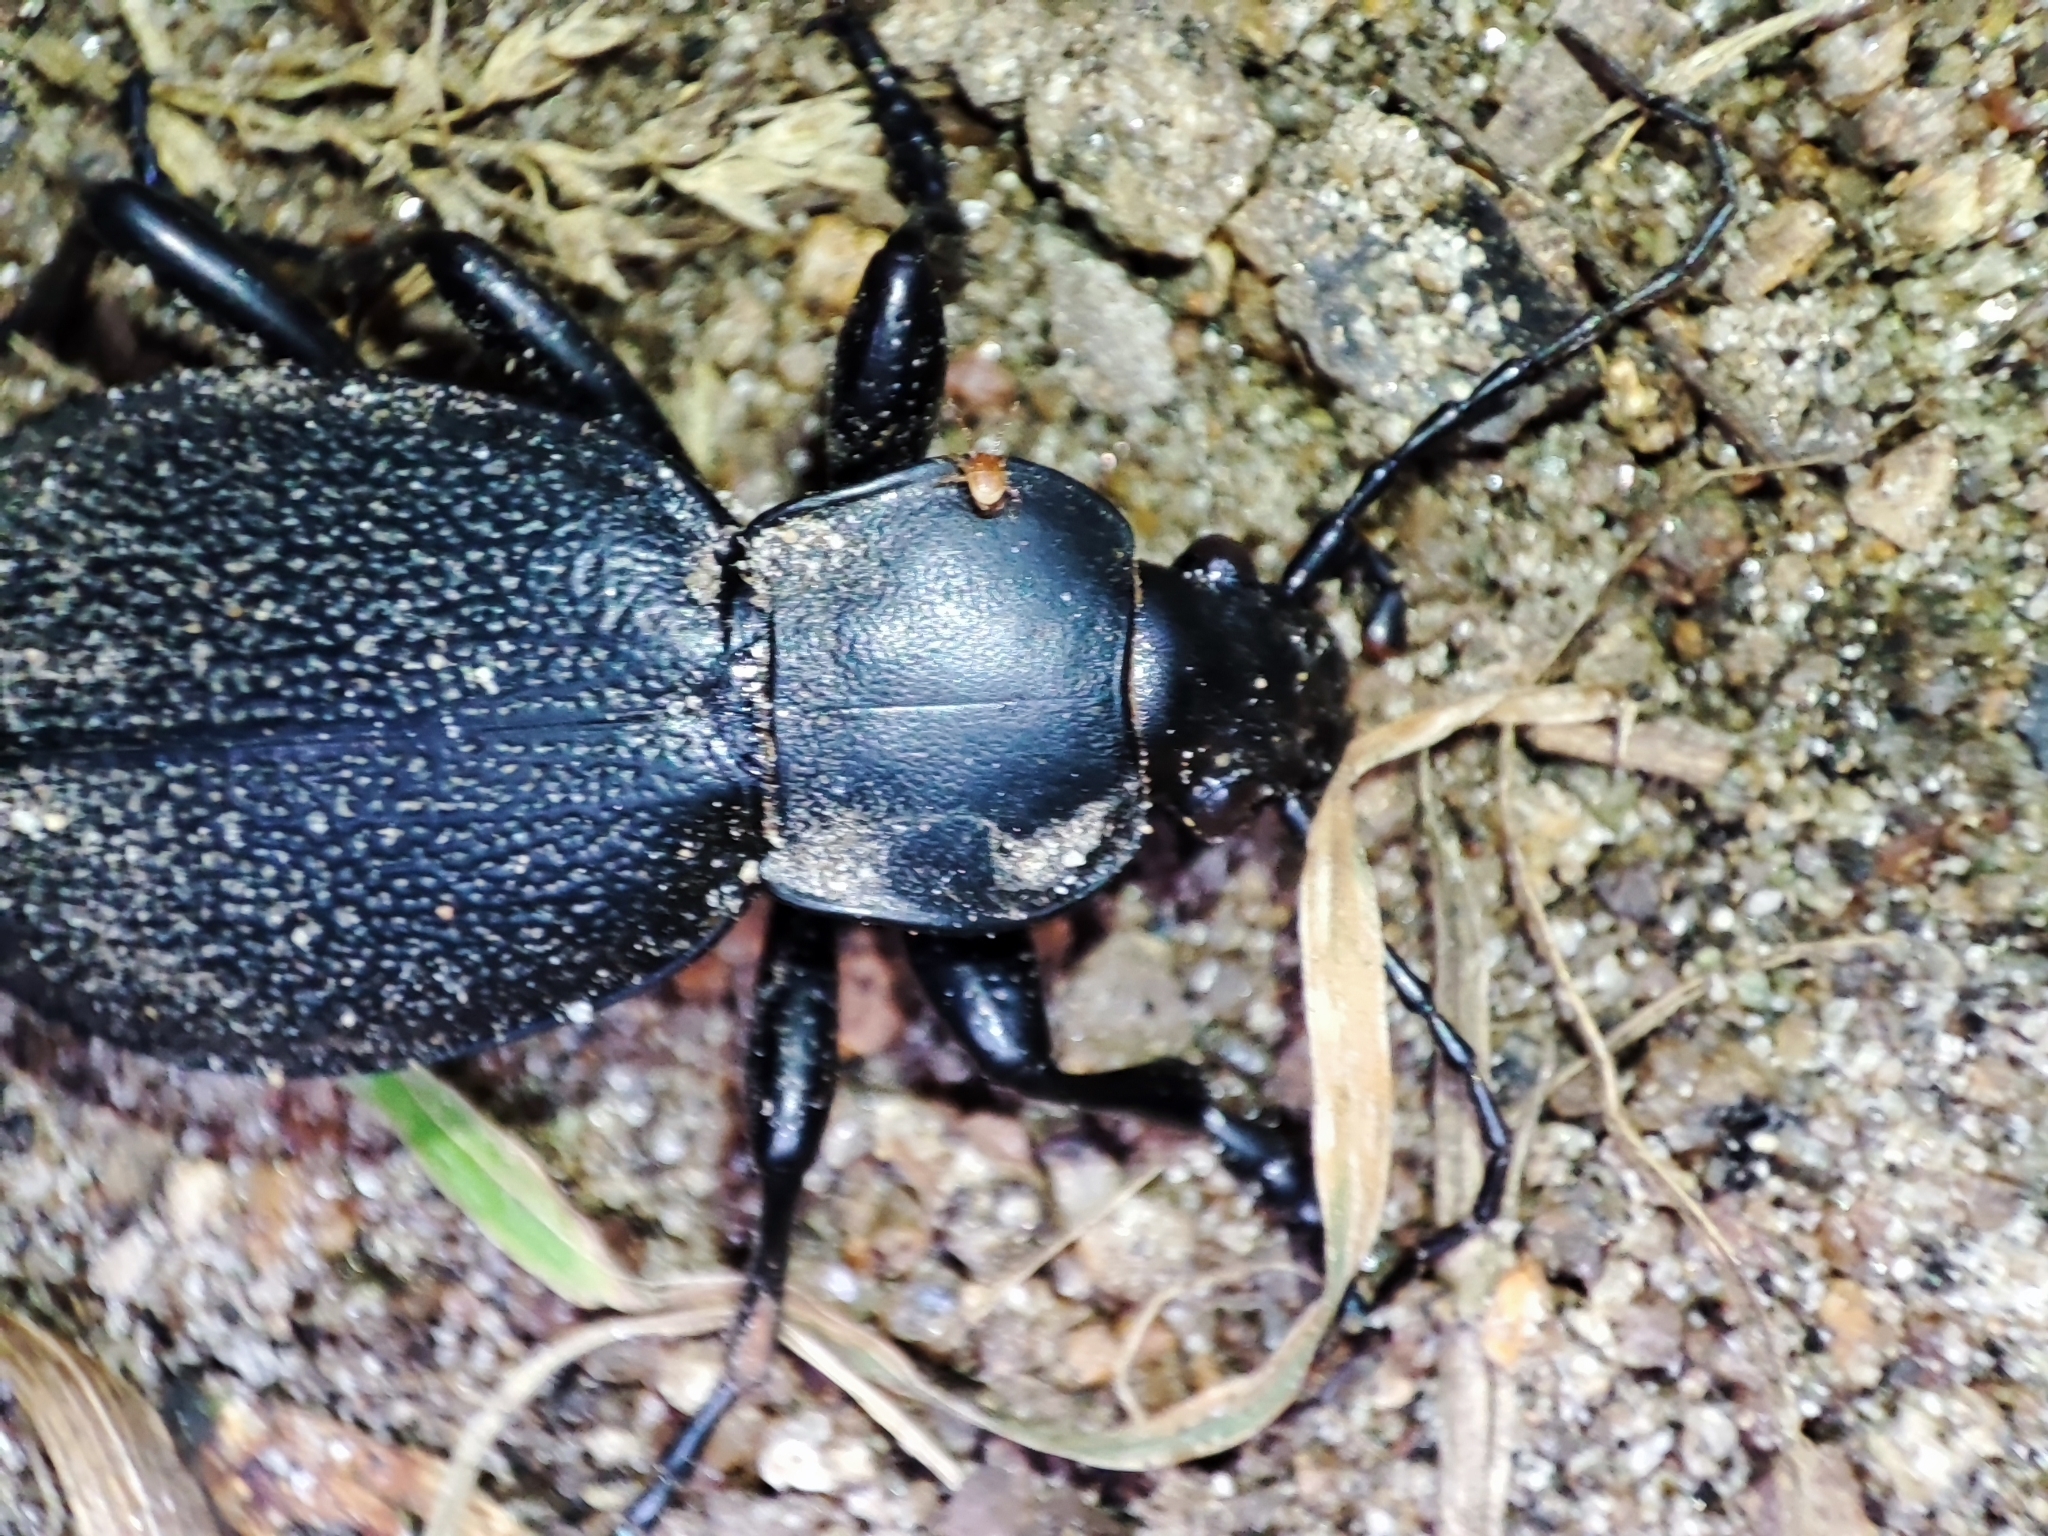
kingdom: Animalia
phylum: Arthropoda
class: Insecta
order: Coleoptera
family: Carabidae
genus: Carabus
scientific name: Carabus coriaceus
